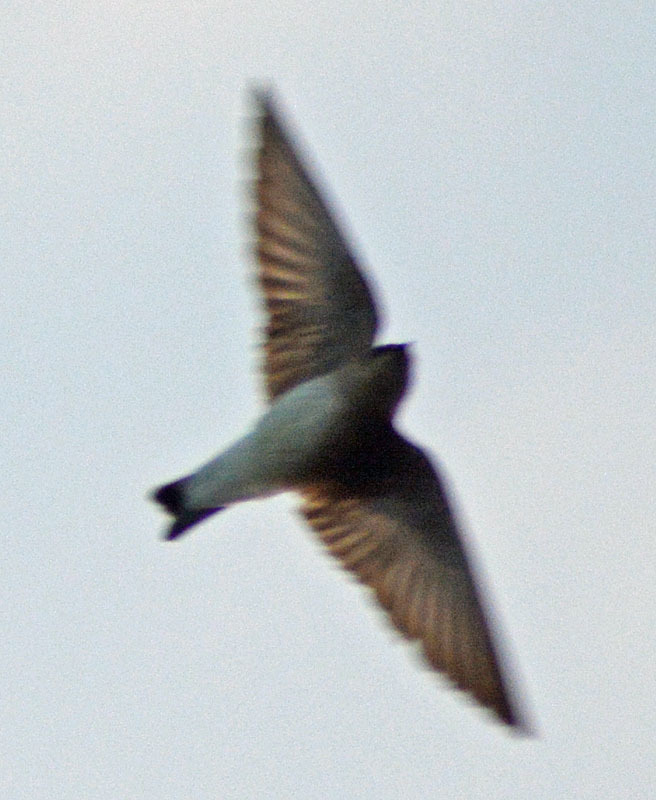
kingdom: Animalia
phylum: Chordata
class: Aves
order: Passeriformes
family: Hirundinidae
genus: Stelgidopteryx
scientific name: Stelgidopteryx serripennis
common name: Northern rough-winged swallow
